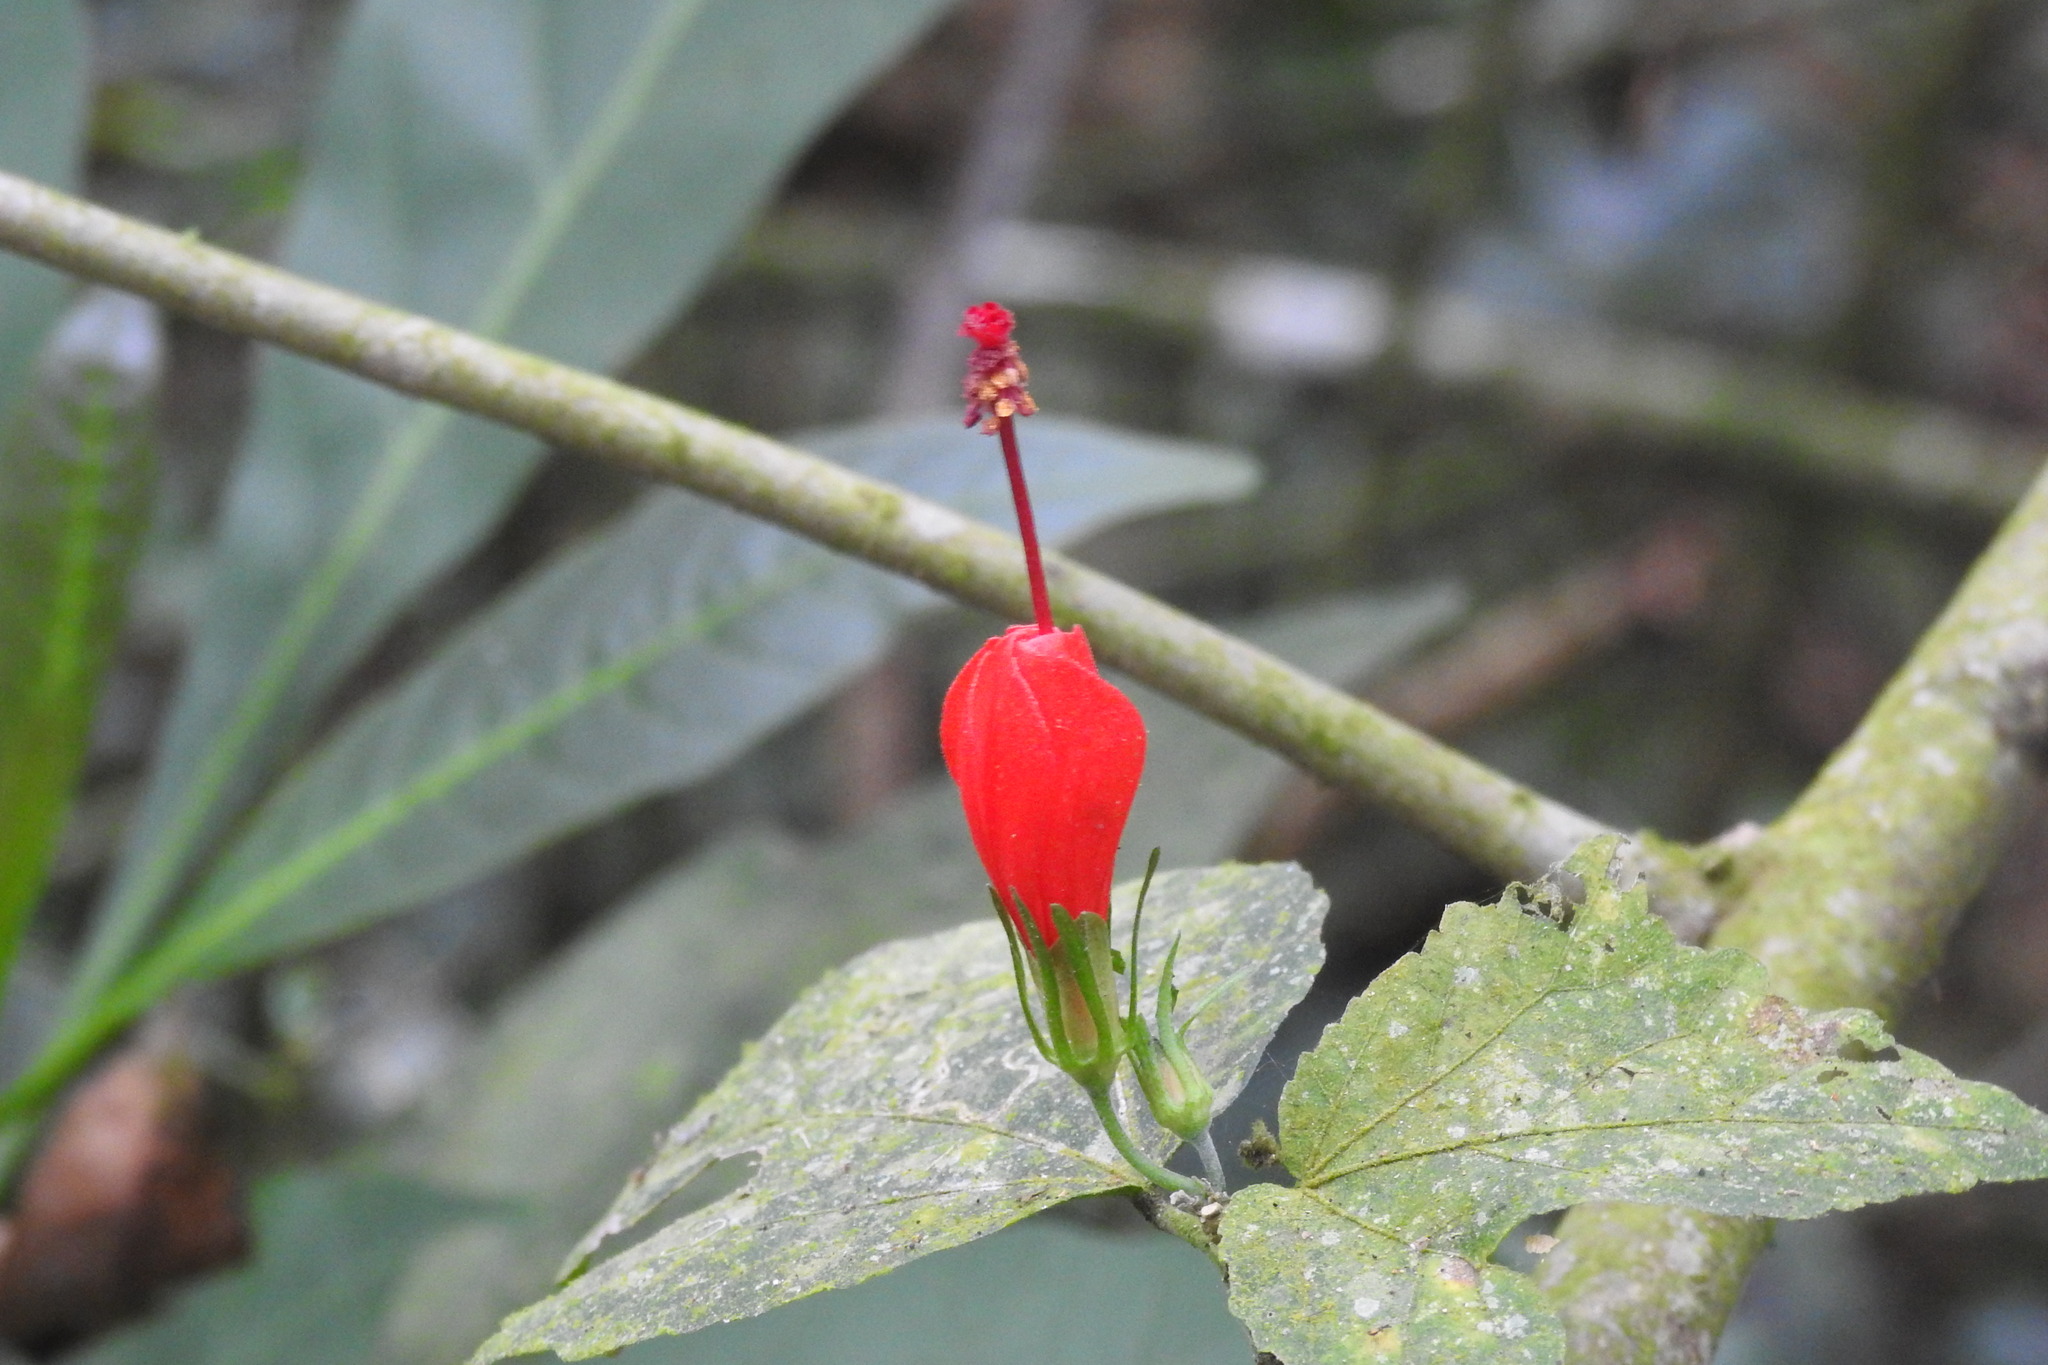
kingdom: Plantae
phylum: Tracheophyta
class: Magnoliopsida
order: Malvales
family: Malvaceae
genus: Malvaviscus
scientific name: Malvaviscus arboreus
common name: Wax mallow
